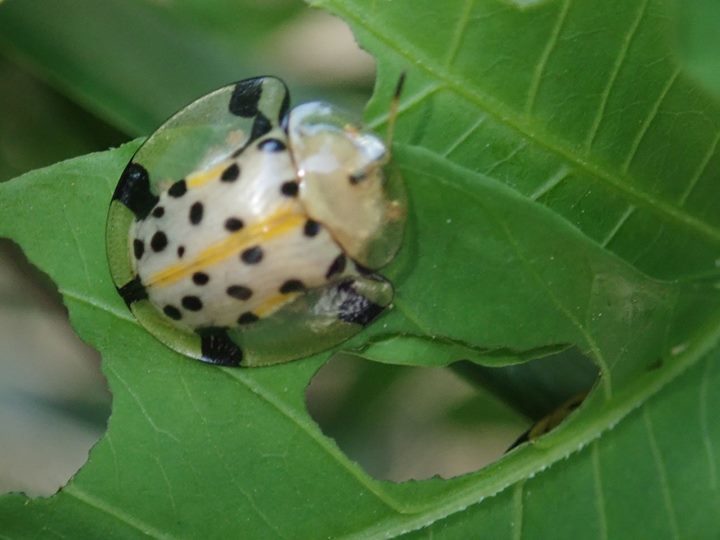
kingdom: Animalia
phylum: Arthropoda
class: Insecta
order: Coleoptera
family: Chrysomelidae
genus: Aspidimorpha
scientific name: Aspidimorpha miliaris
